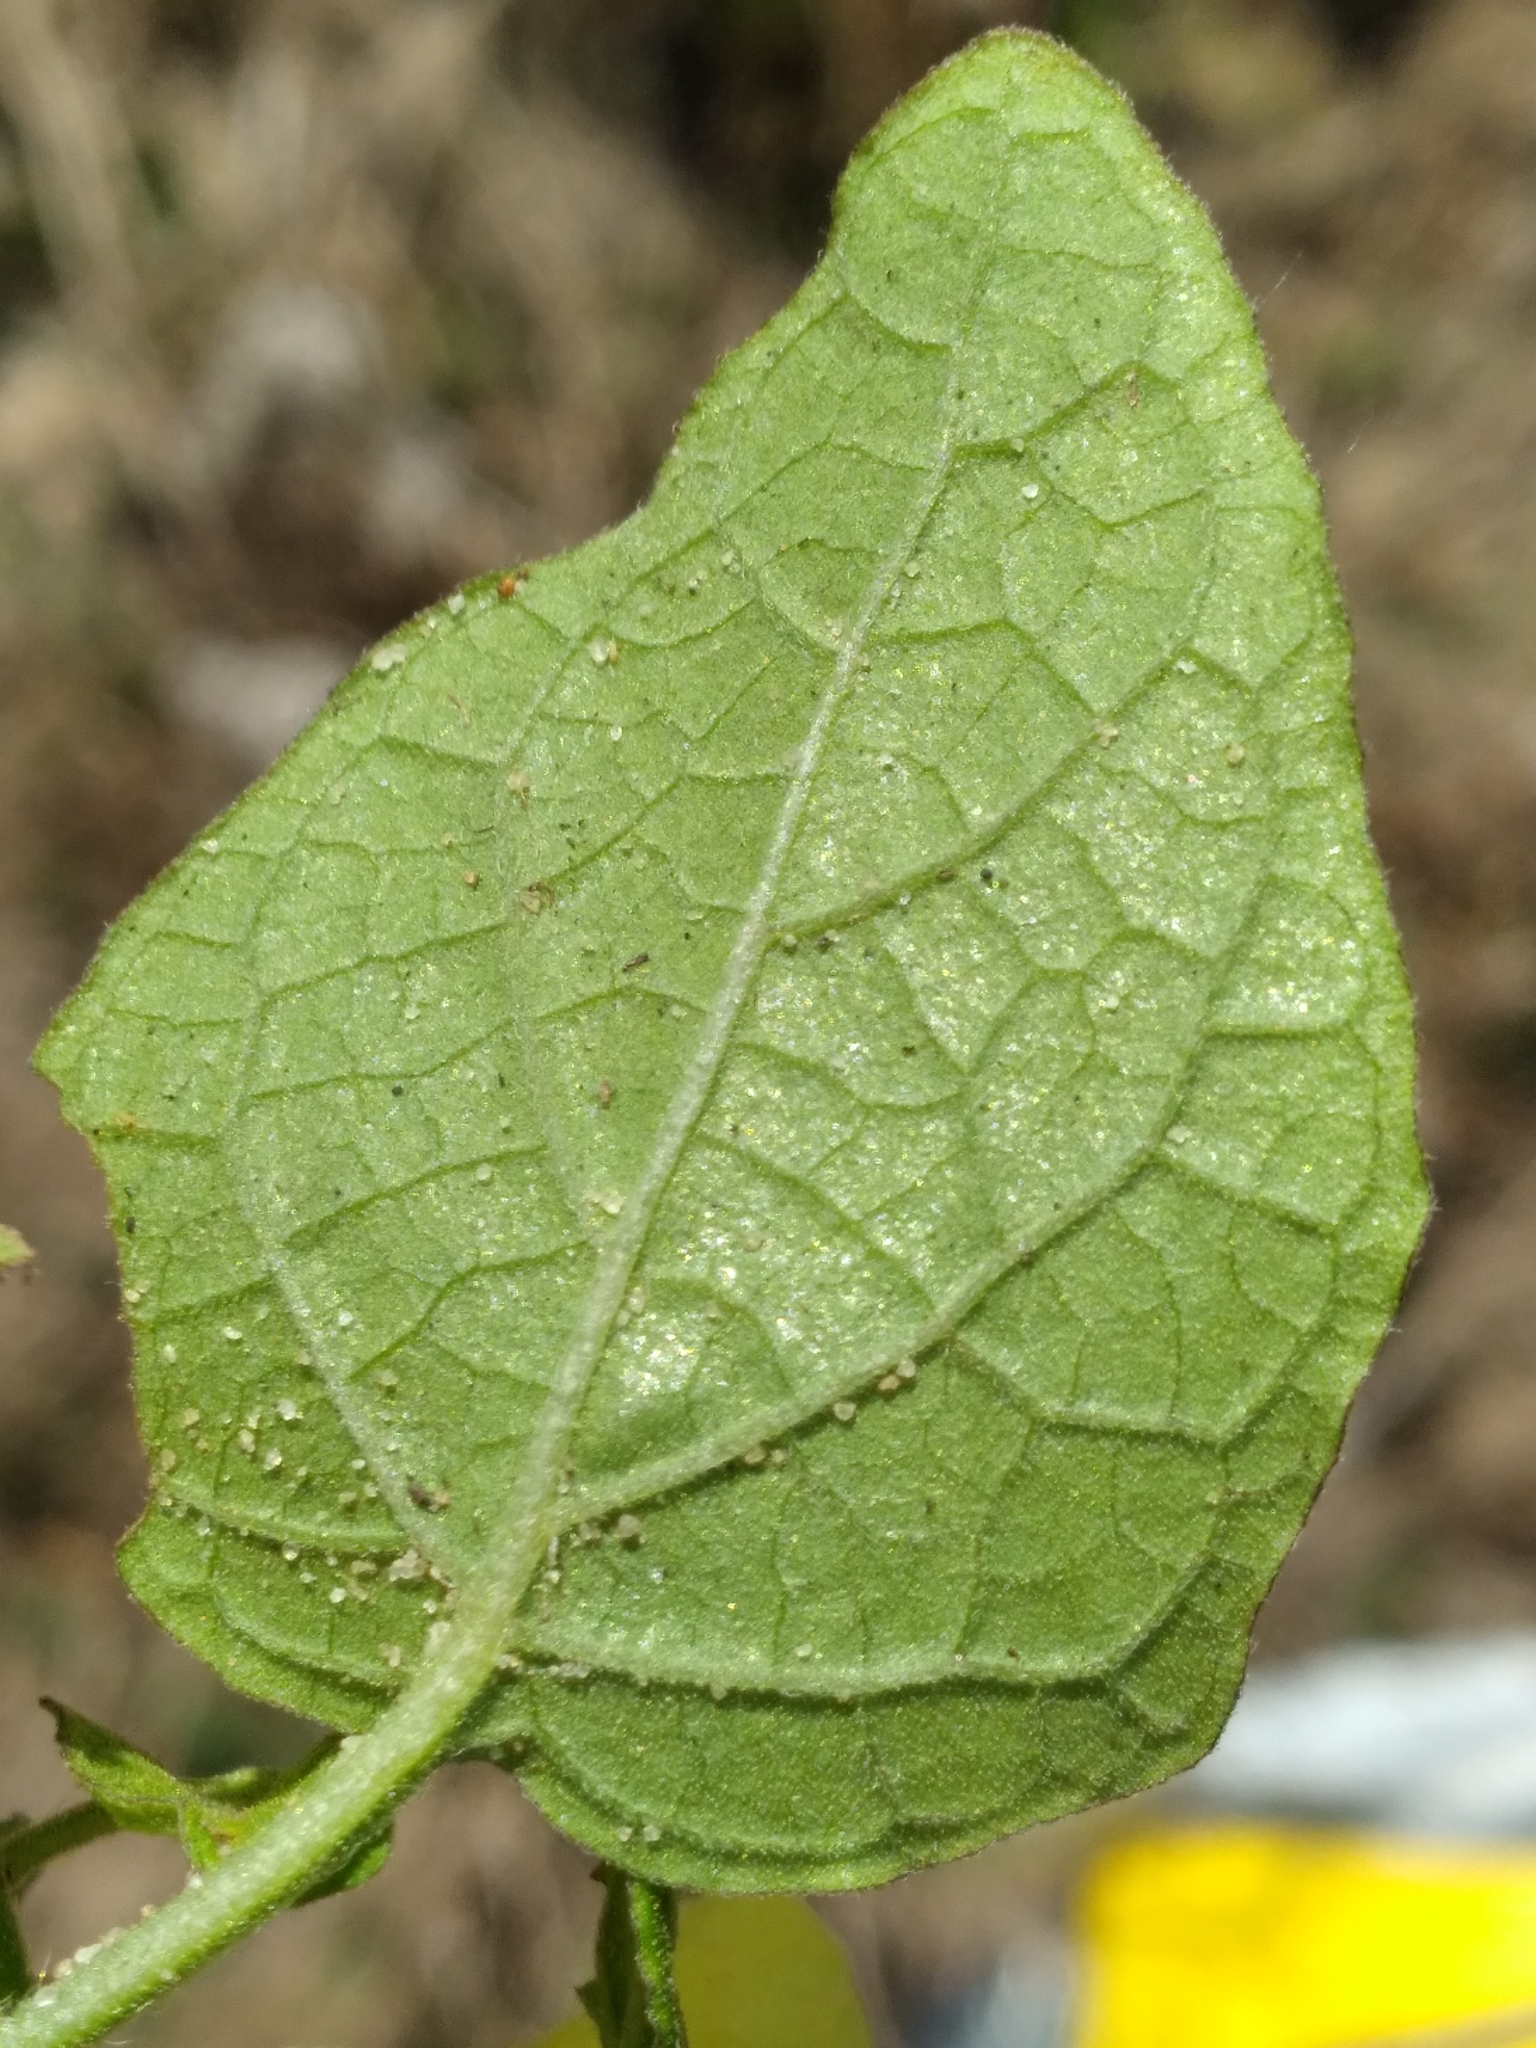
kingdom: Plantae
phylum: Tracheophyta
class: Magnoliopsida
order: Solanales
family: Solanaceae
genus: Physalis
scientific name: Physalis arenicola
